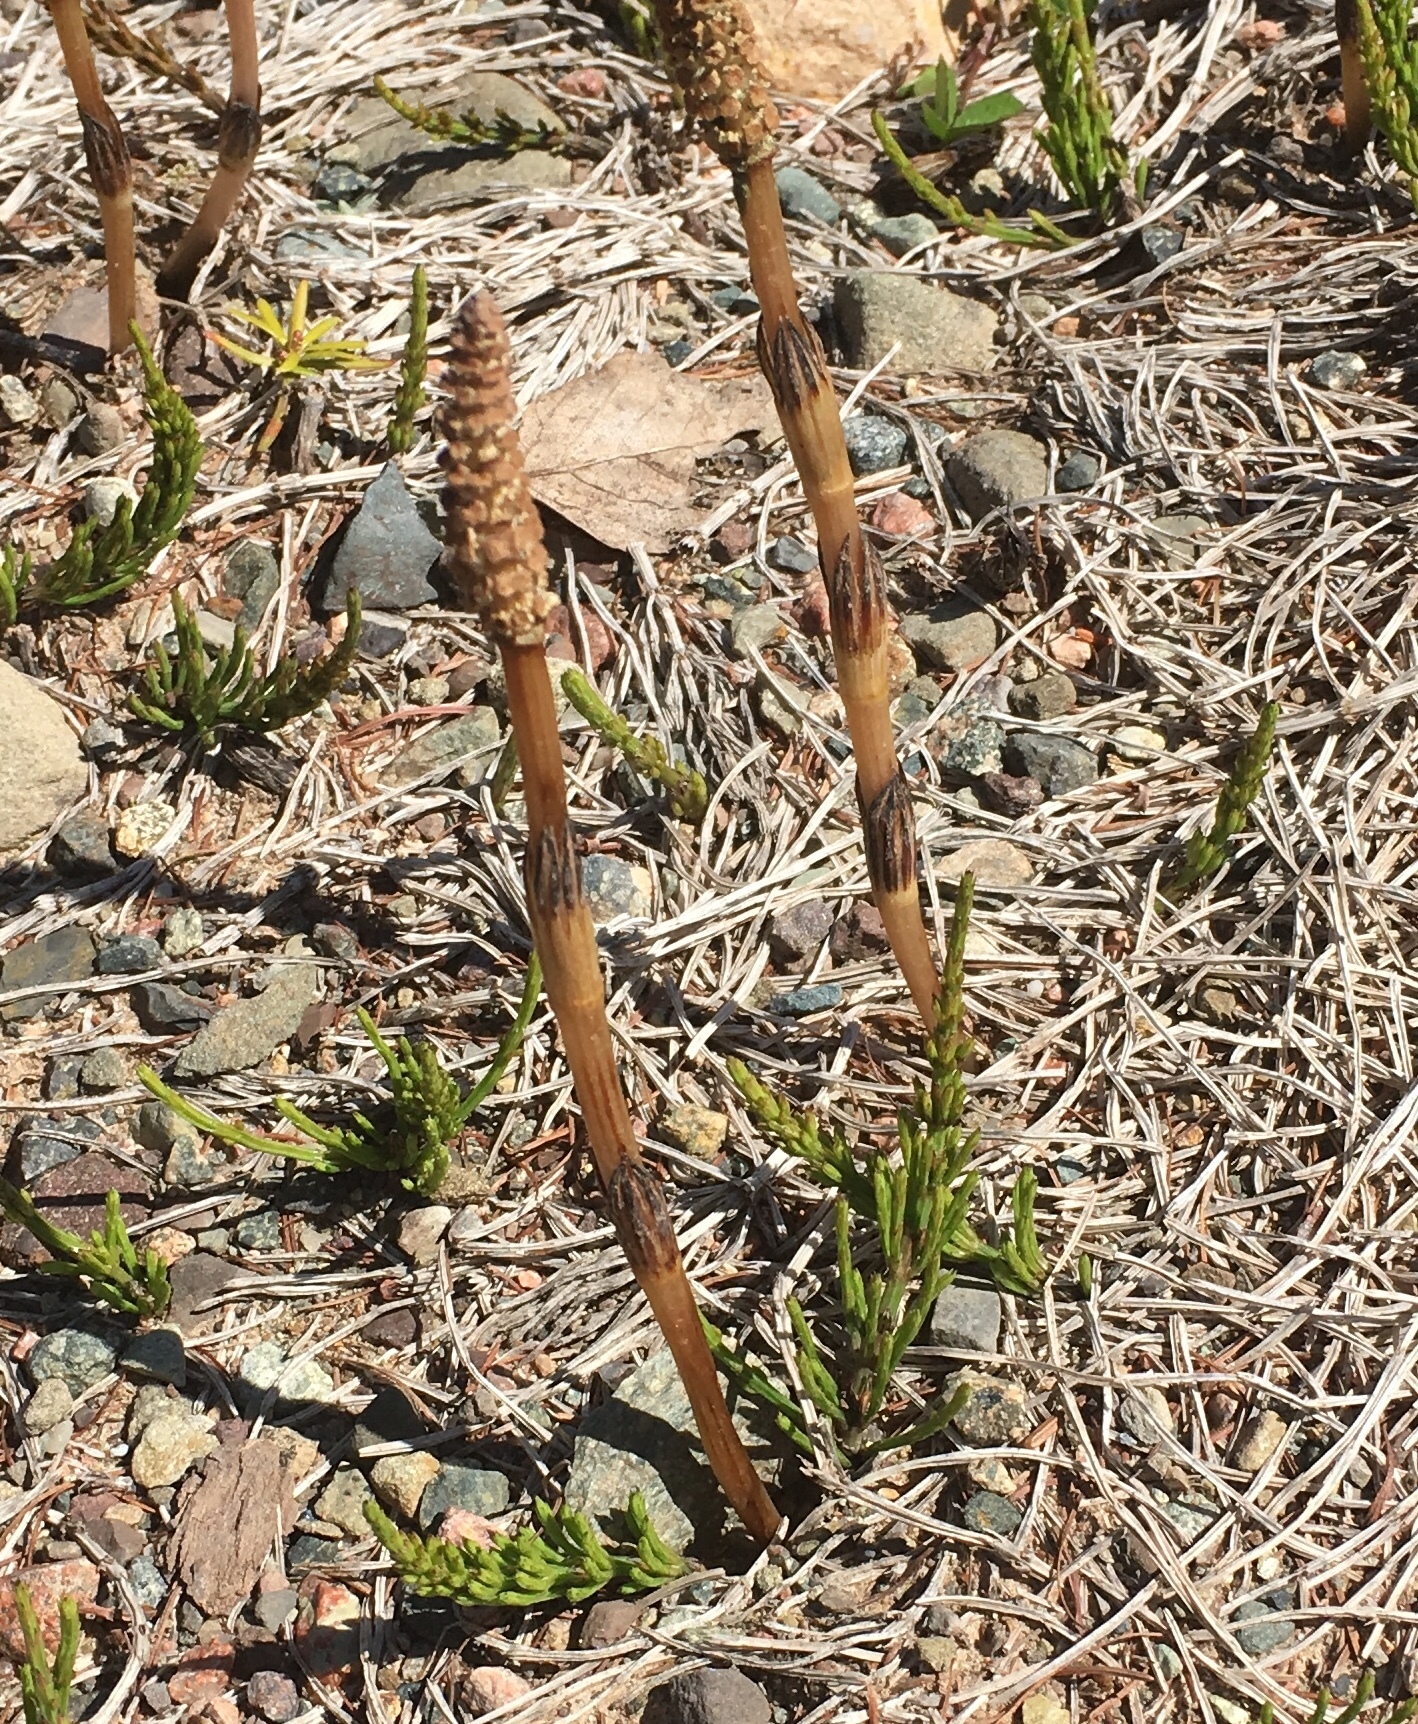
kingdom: Plantae
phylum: Tracheophyta
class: Polypodiopsida
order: Equisetales
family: Equisetaceae
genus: Equisetum
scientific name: Equisetum arvense
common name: Field horsetail
